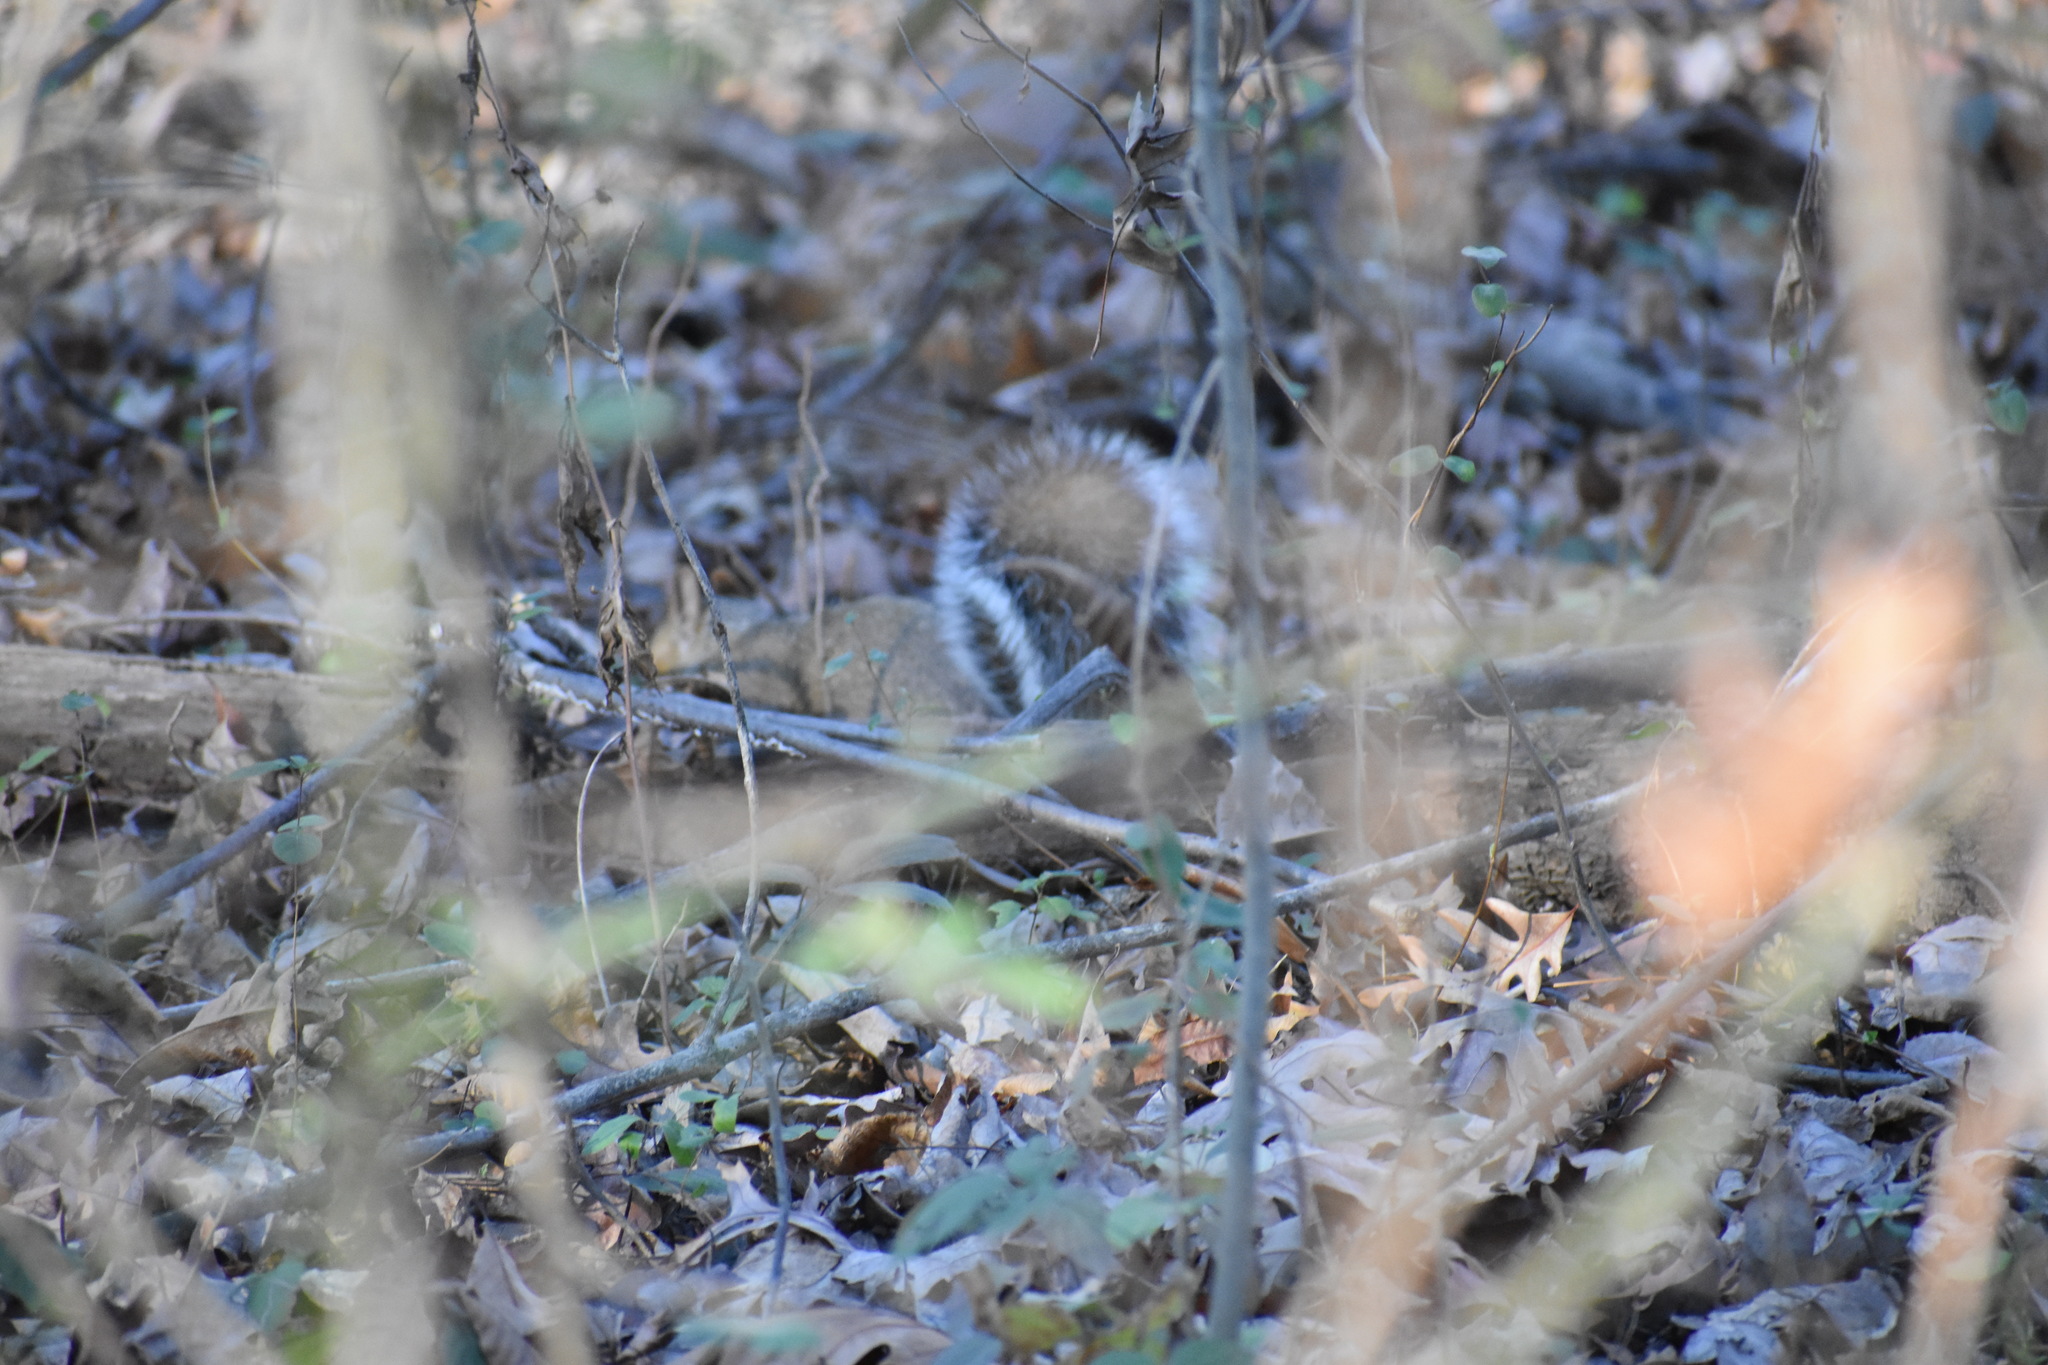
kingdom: Animalia
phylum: Chordata
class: Mammalia
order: Rodentia
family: Sciuridae
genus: Sciurus
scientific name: Sciurus carolinensis
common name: Eastern gray squirrel
